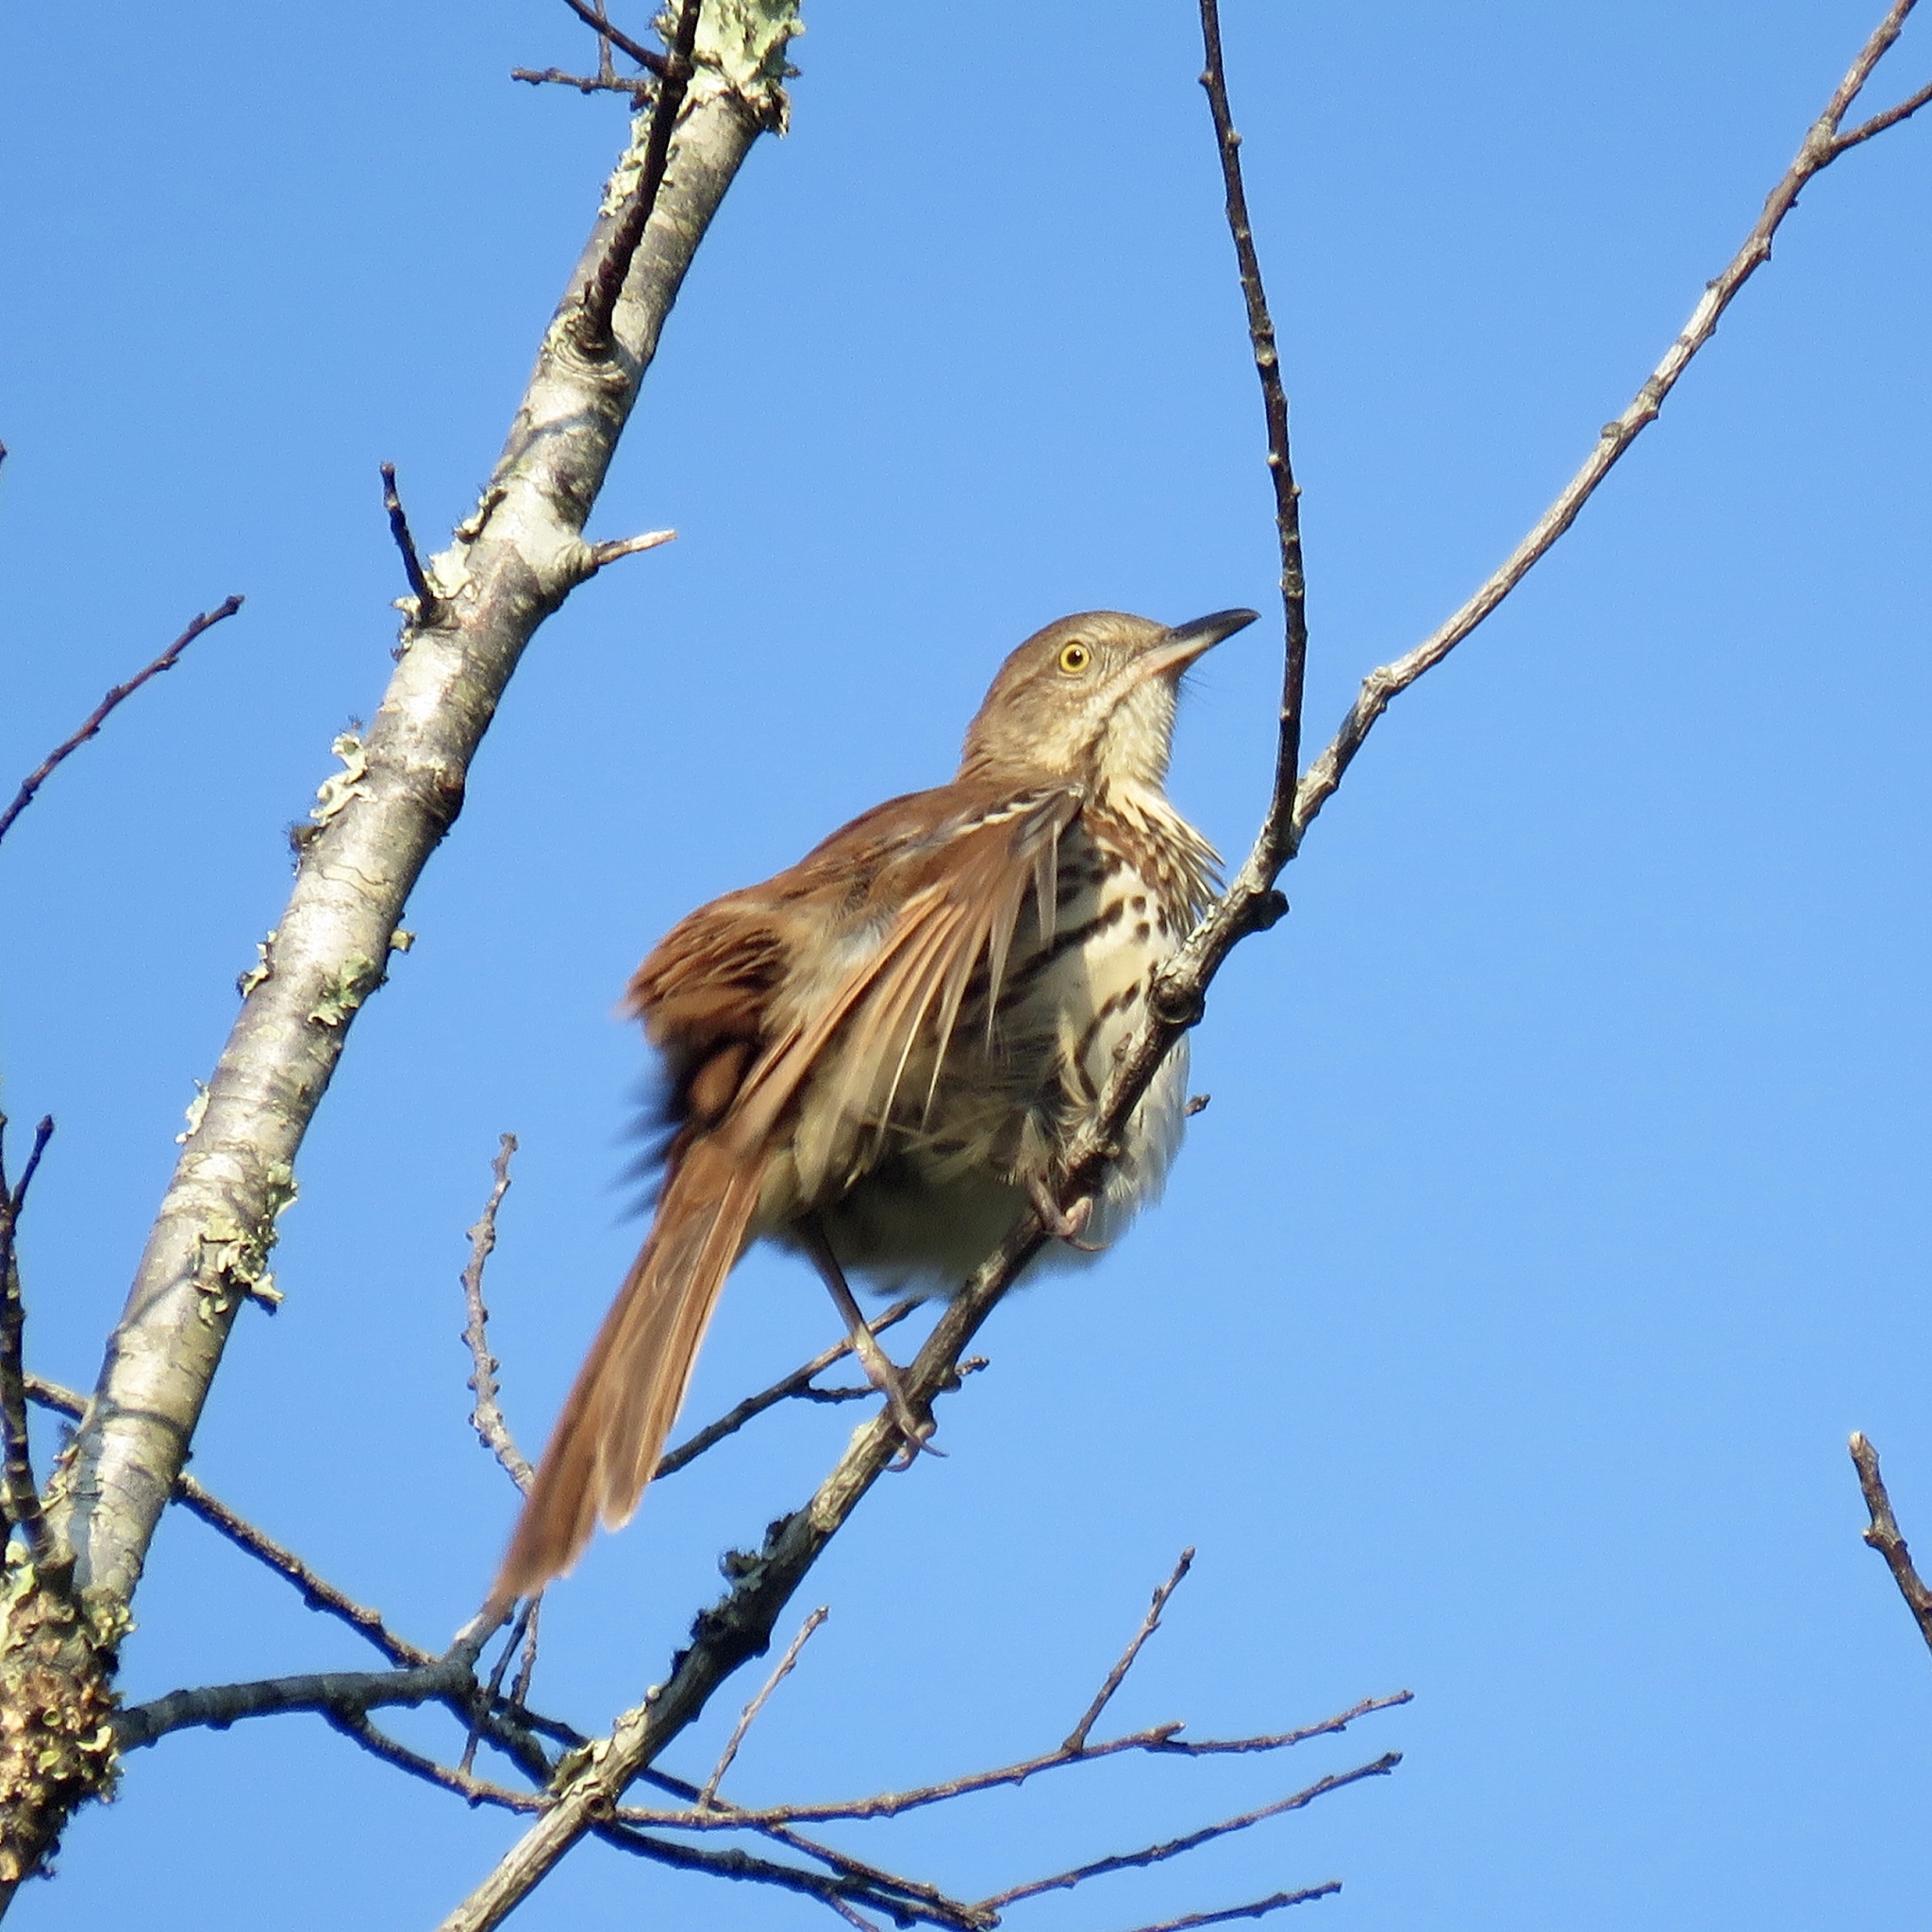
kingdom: Animalia
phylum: Chordata
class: Aves
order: Passeriformes
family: Mimidae
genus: Toxostoma
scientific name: Toxostoma rufum
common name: Brown thrasher
